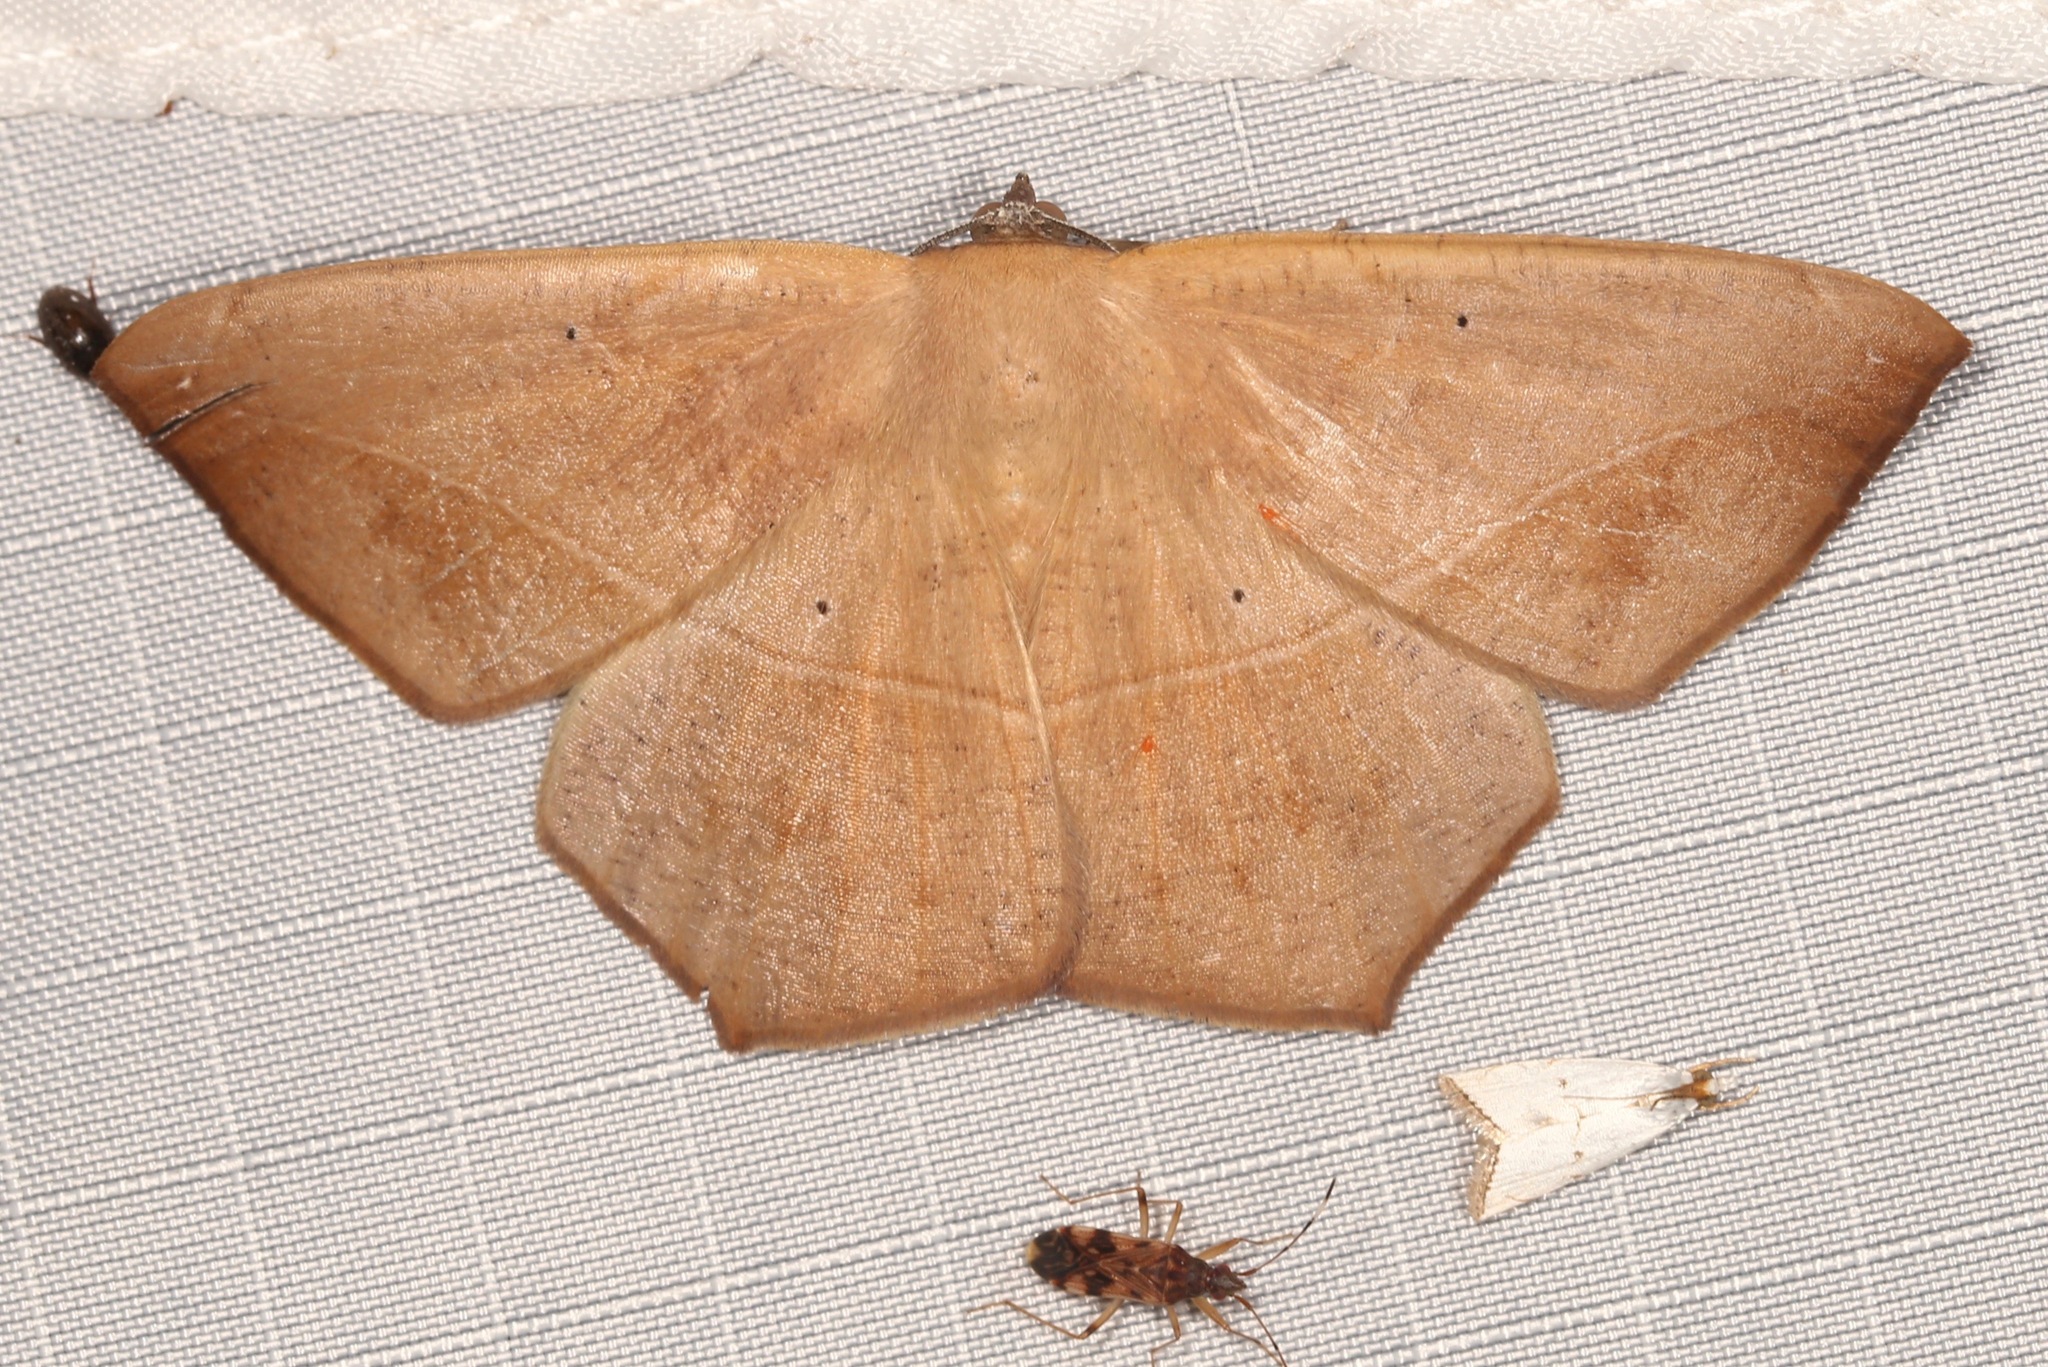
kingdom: Animalia
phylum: Arthropoda
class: Insecta
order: Lepidoptera
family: Geometridae
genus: Prochoerodes
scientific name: Prochoerodes lineola
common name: Large maple spanworm
